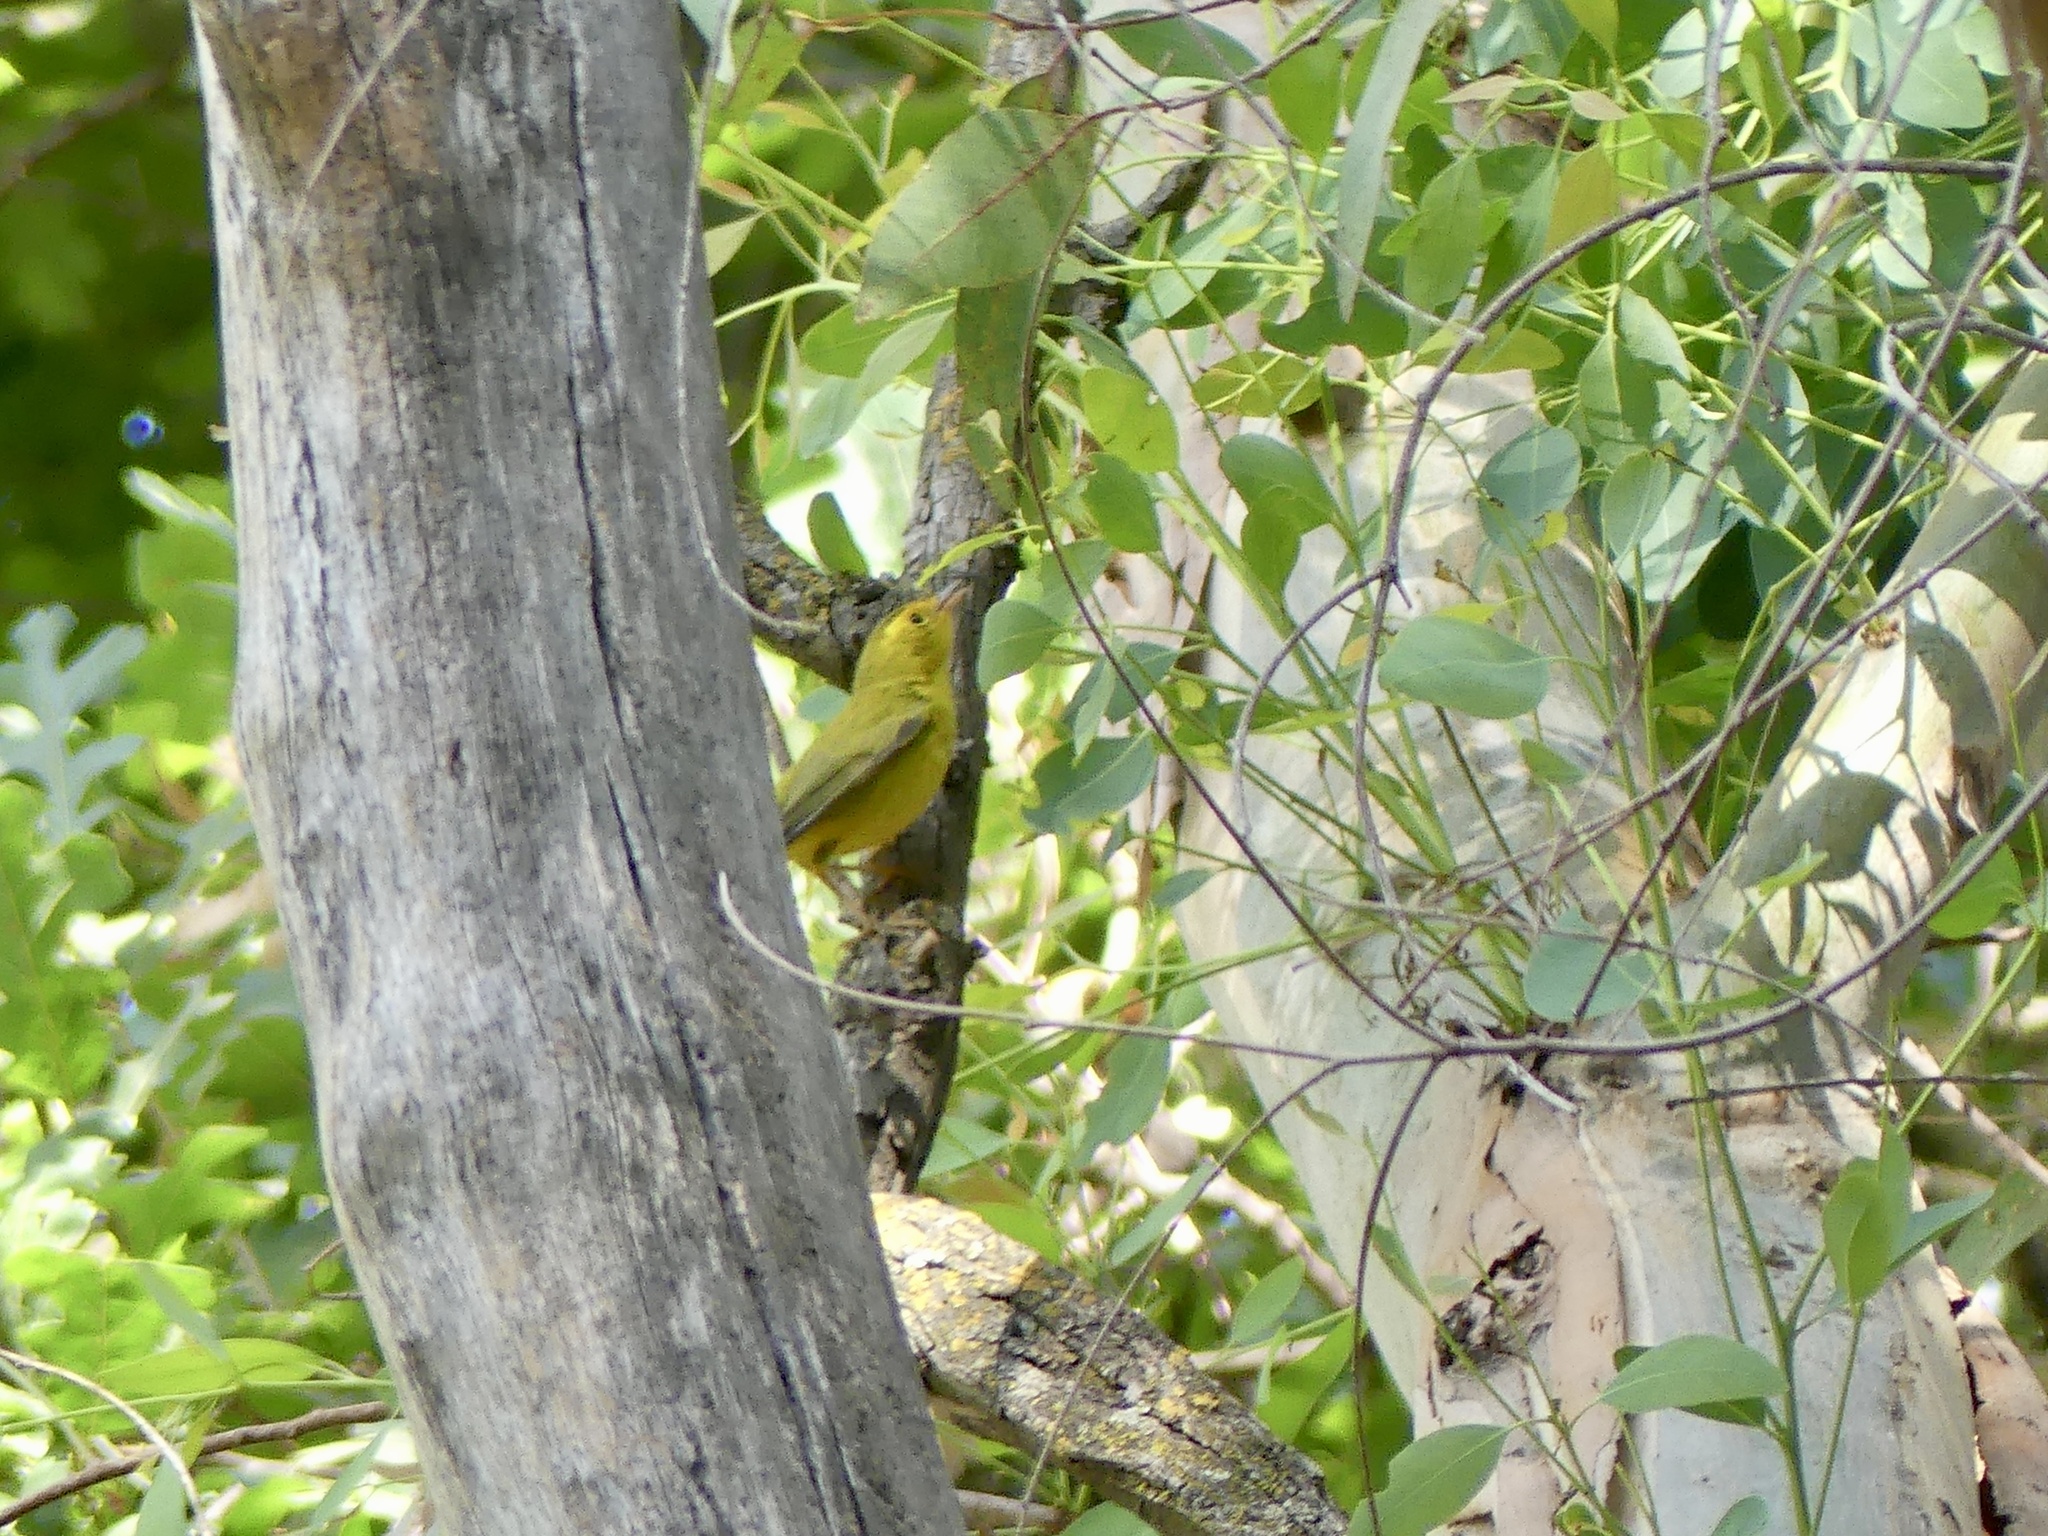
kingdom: Animalia
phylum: Chordata
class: Aves
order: Passeriformes
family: Parulidae
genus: Cardellina
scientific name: Cardellina pusilla
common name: Wilson's warbler
